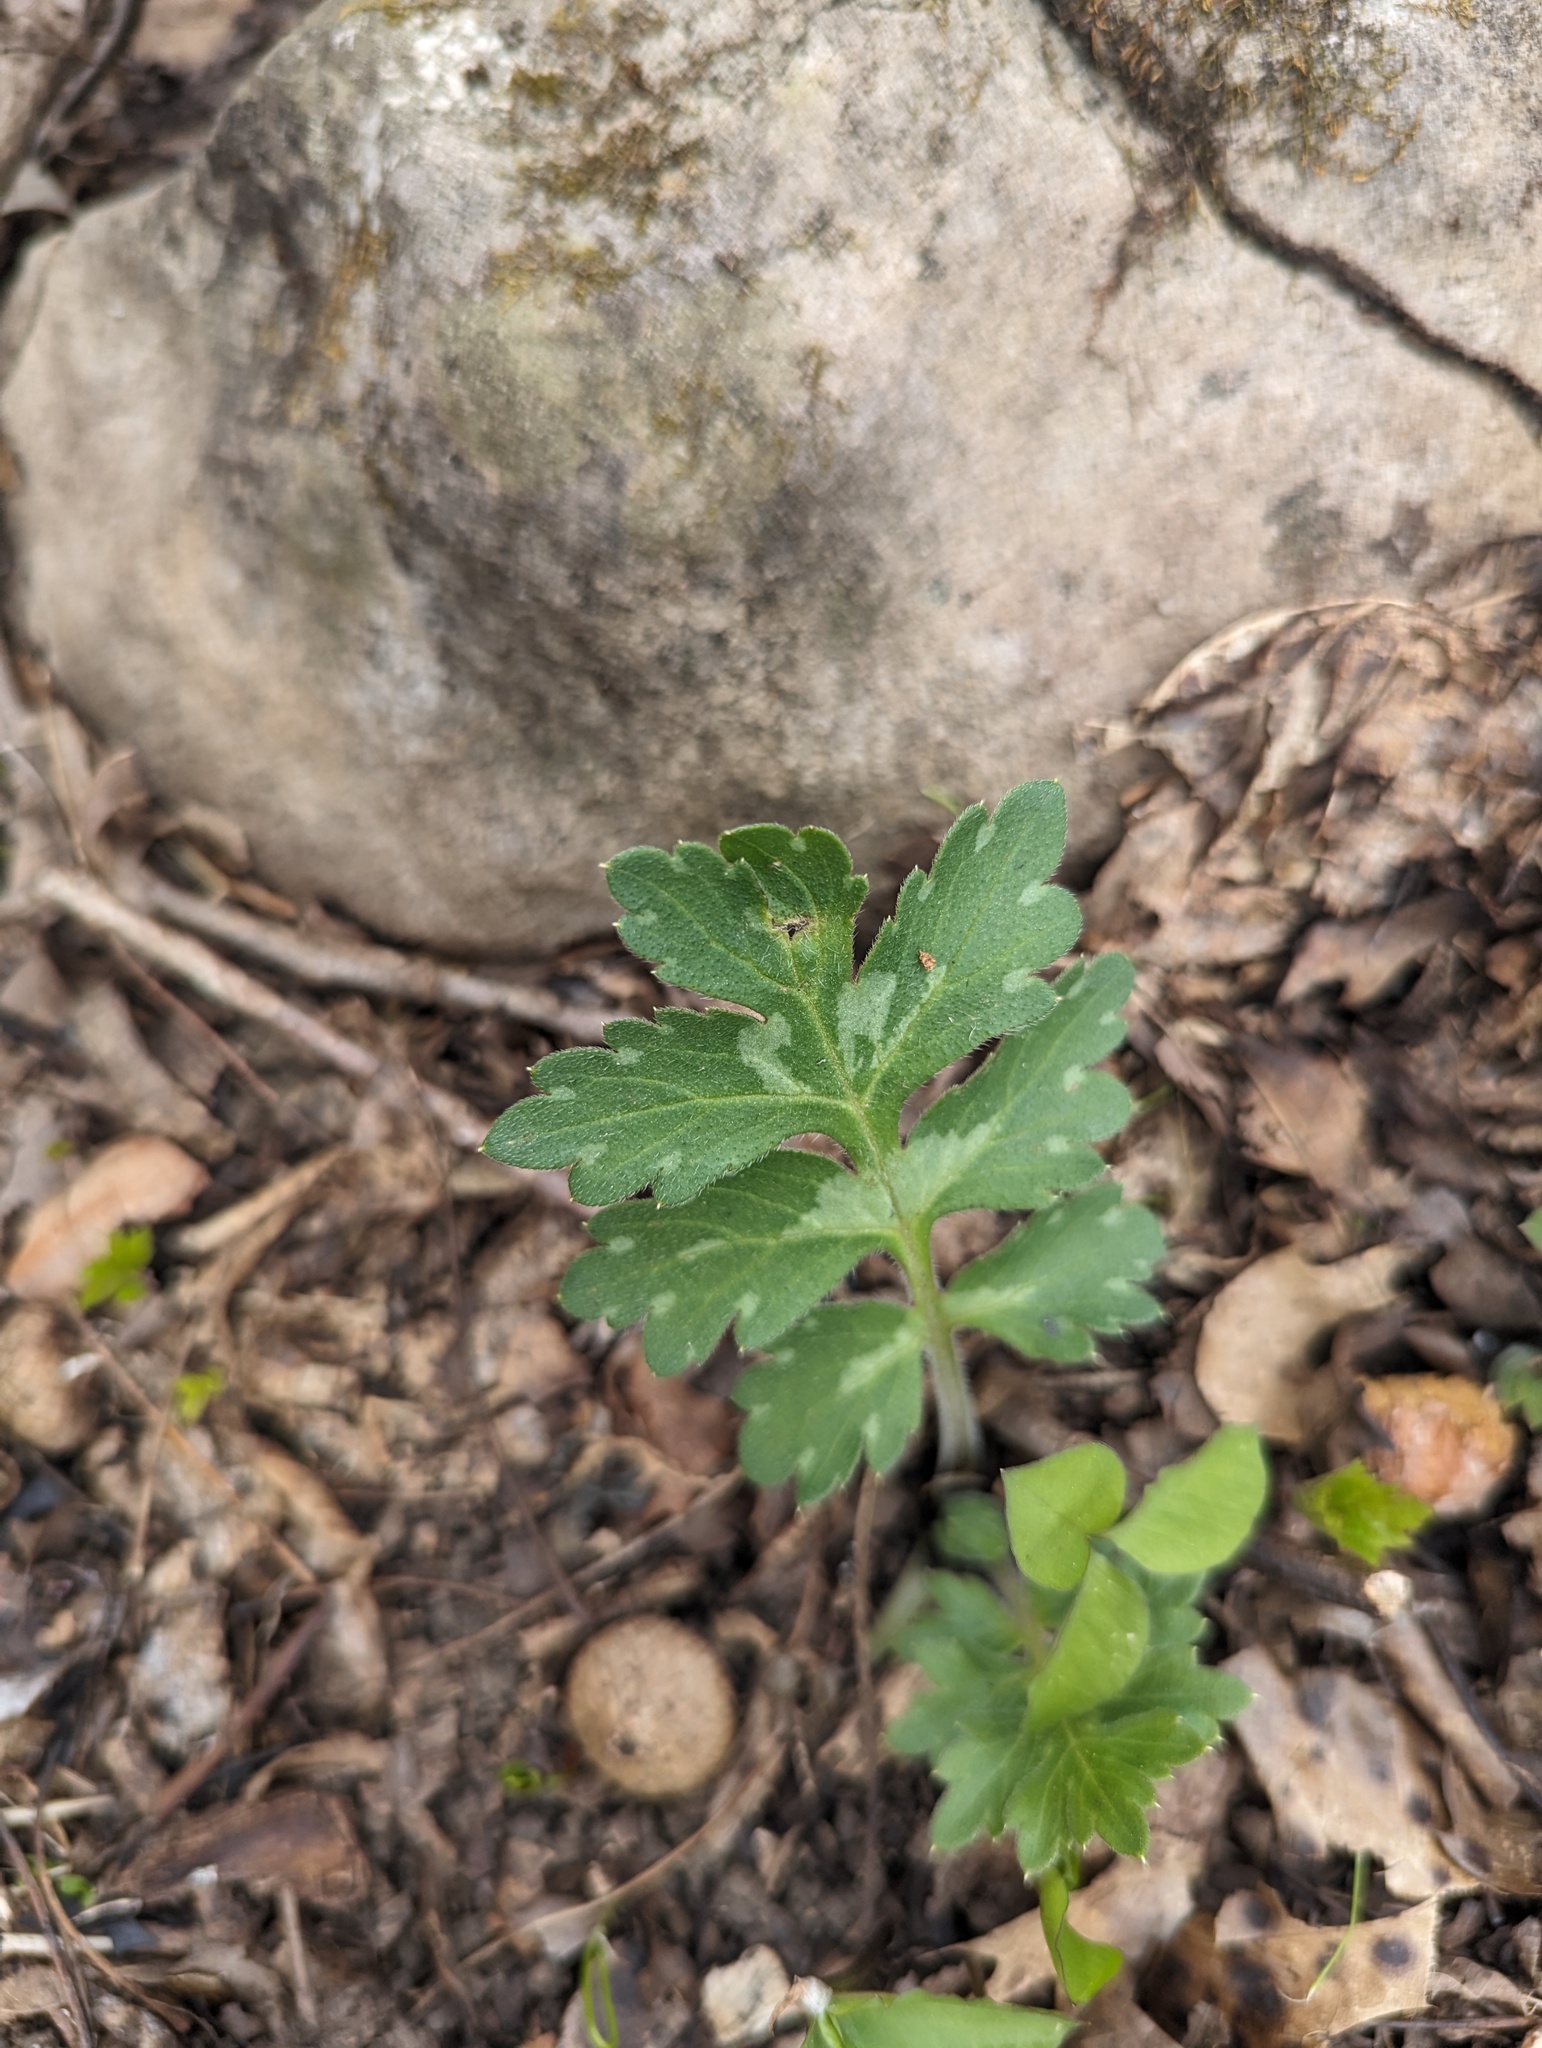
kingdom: Plantae
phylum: Tracheophyta
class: Magnoliopsida
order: Boraginales
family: Hydrophyllaceae
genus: Hydrophyllum
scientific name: Hydrophyllum macrophyllum
